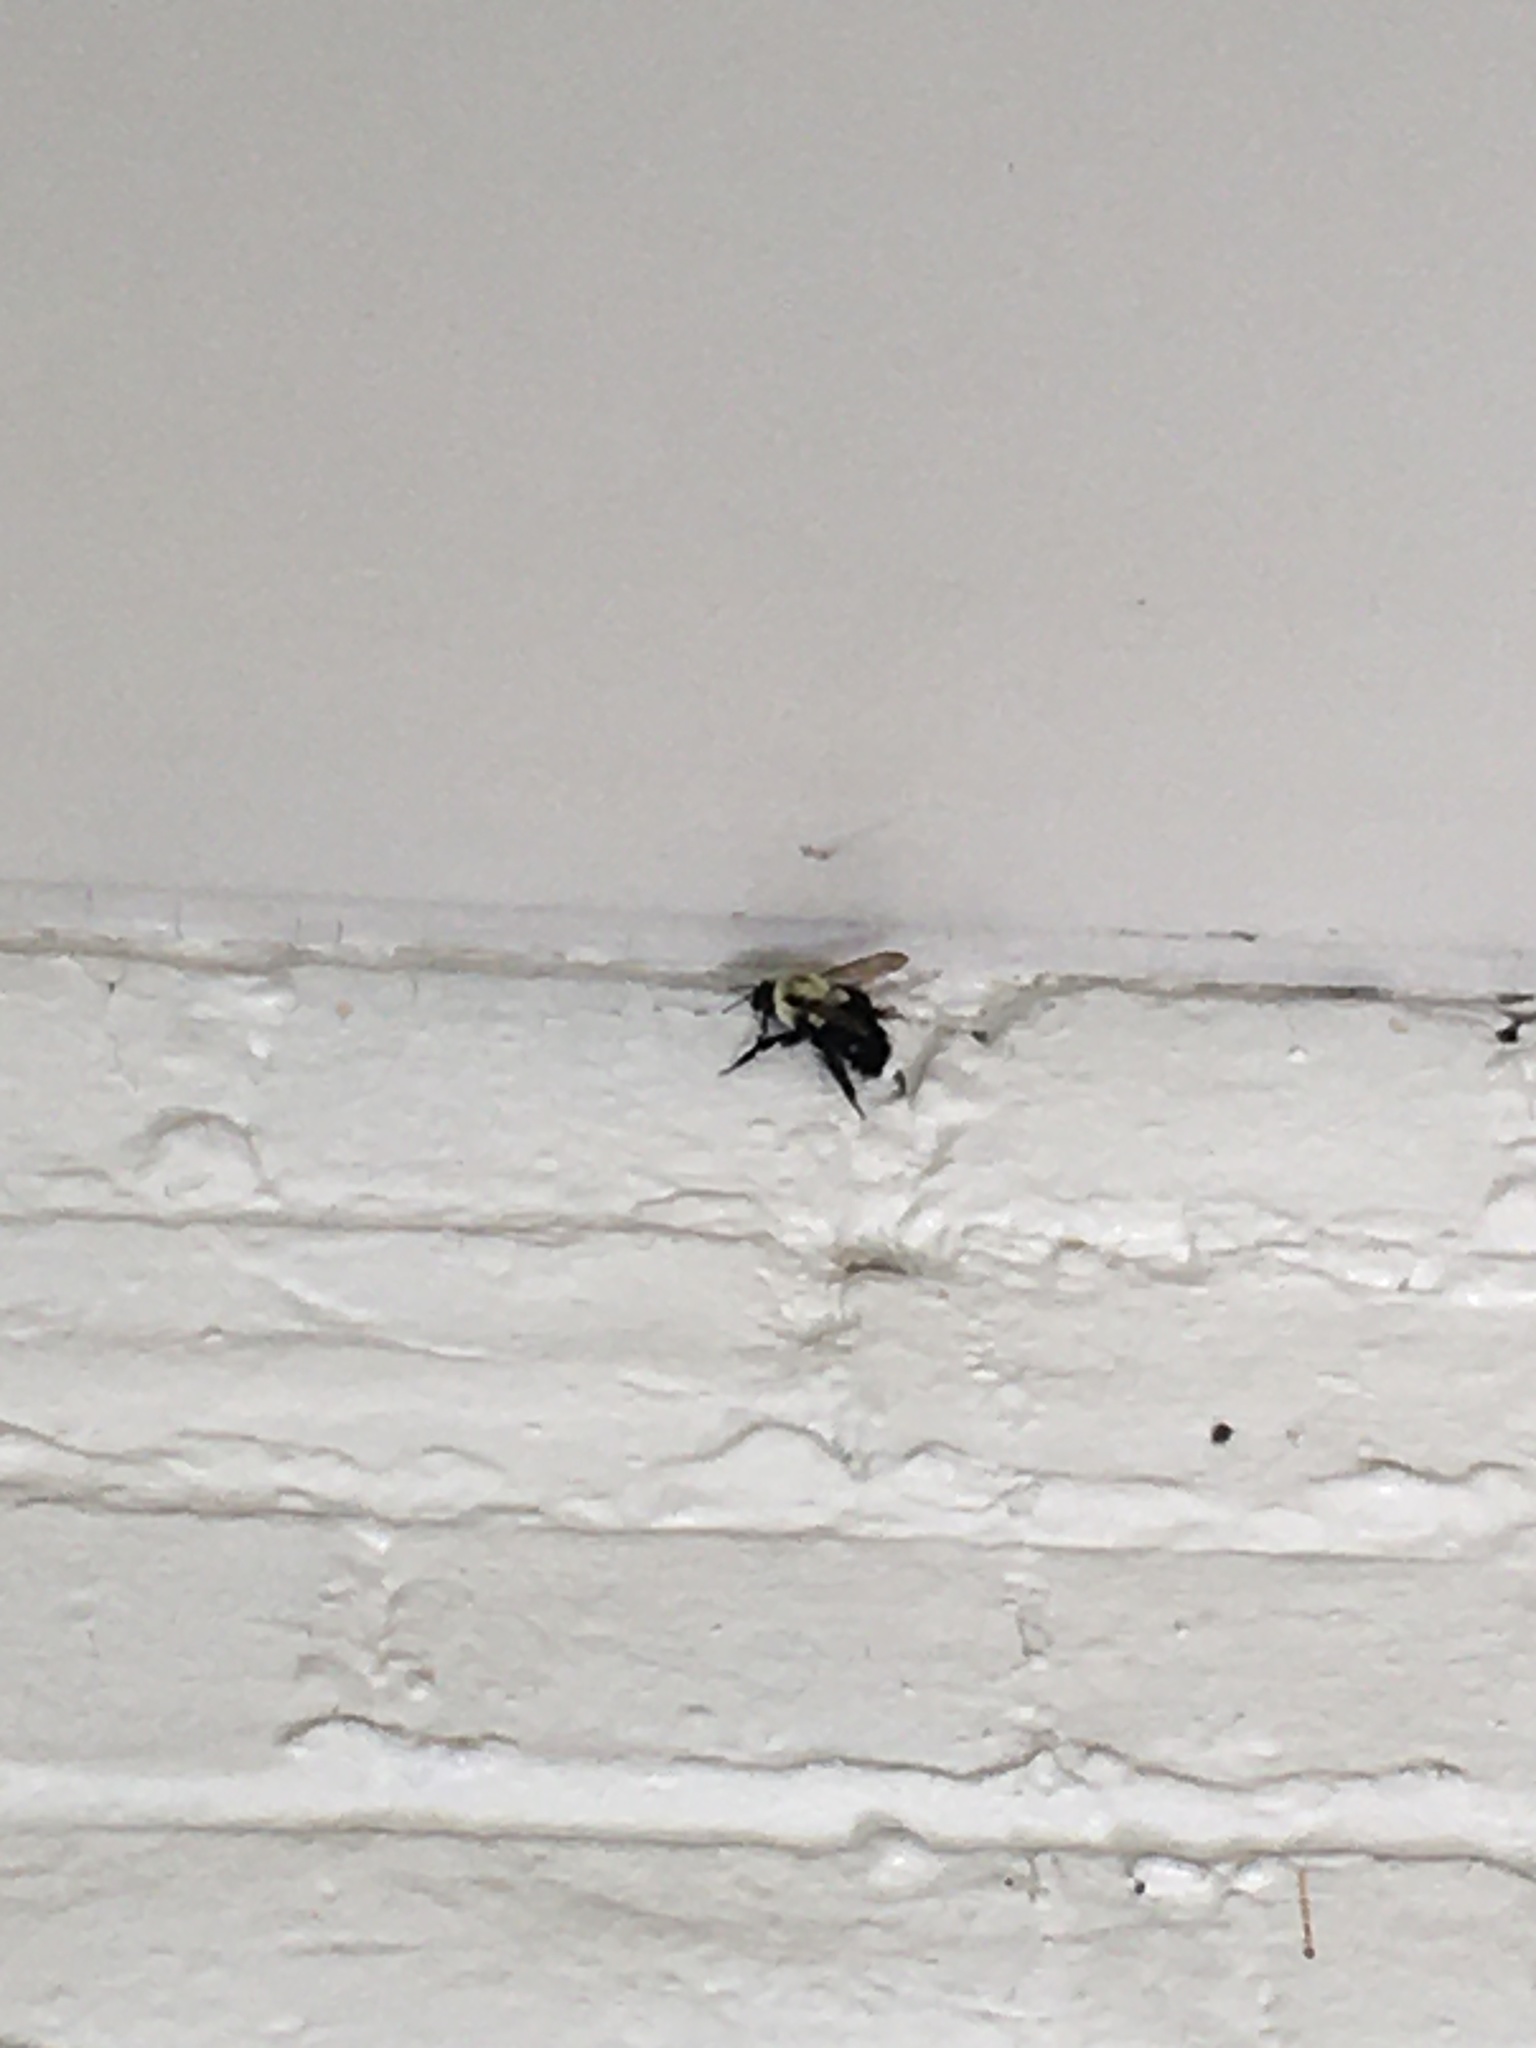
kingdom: Animalia
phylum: Arthropoda
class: Insecta
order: Hymenoptera
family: Apidae
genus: Bombus
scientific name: Bombus impatiens
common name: Common eastern bumble bee
